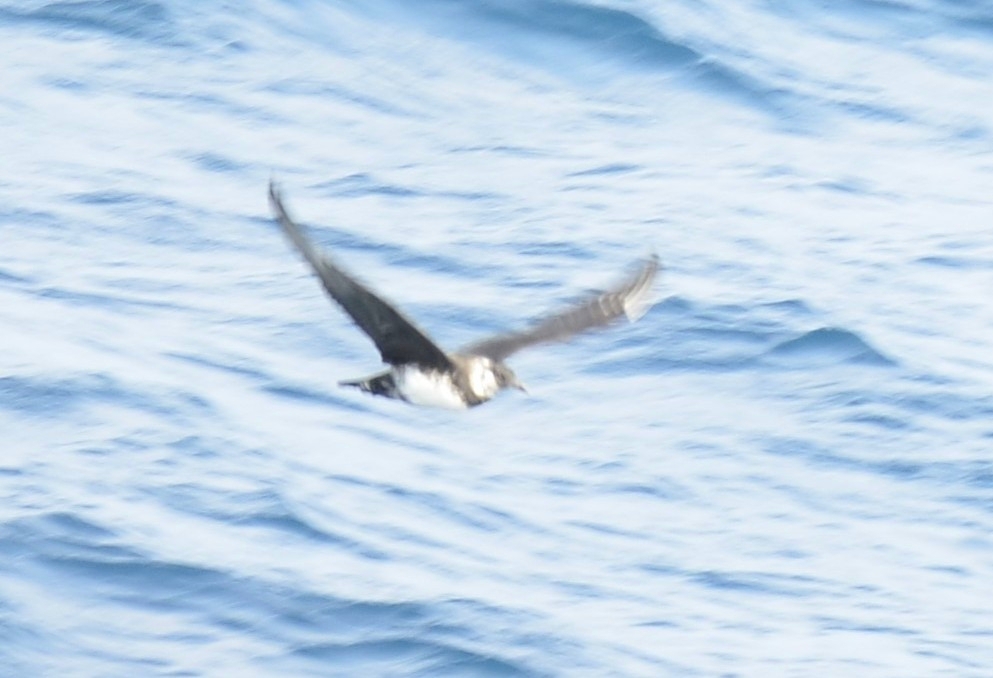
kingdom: Animalia
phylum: Chordata
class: Aves
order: Charadriiformes
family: Stercorariidae
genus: Stercorarius
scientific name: Stercorarius pomarinus
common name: Pomarine jaeger
